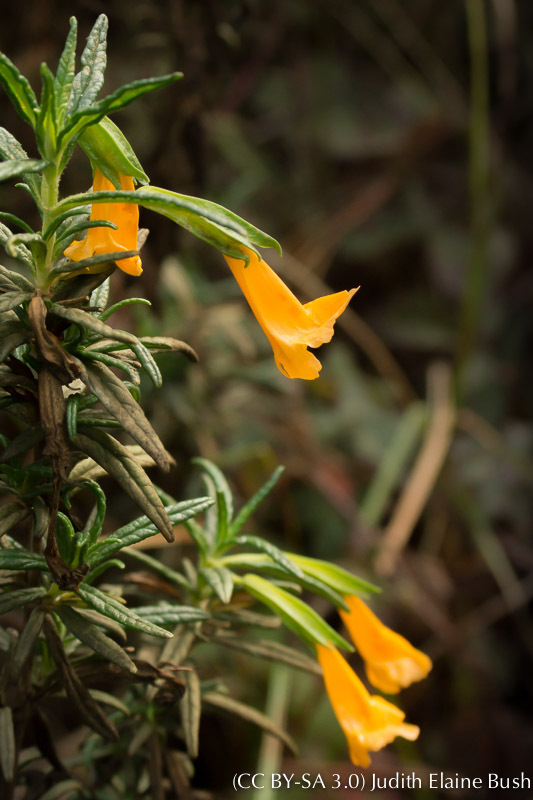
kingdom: Plantae
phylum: Tracheophyta
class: Magnoliopsida
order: Lamiales
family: Phrymaceae
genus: Diplacus
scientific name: Diplacus aurantiacus
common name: Bush monkey-flower
